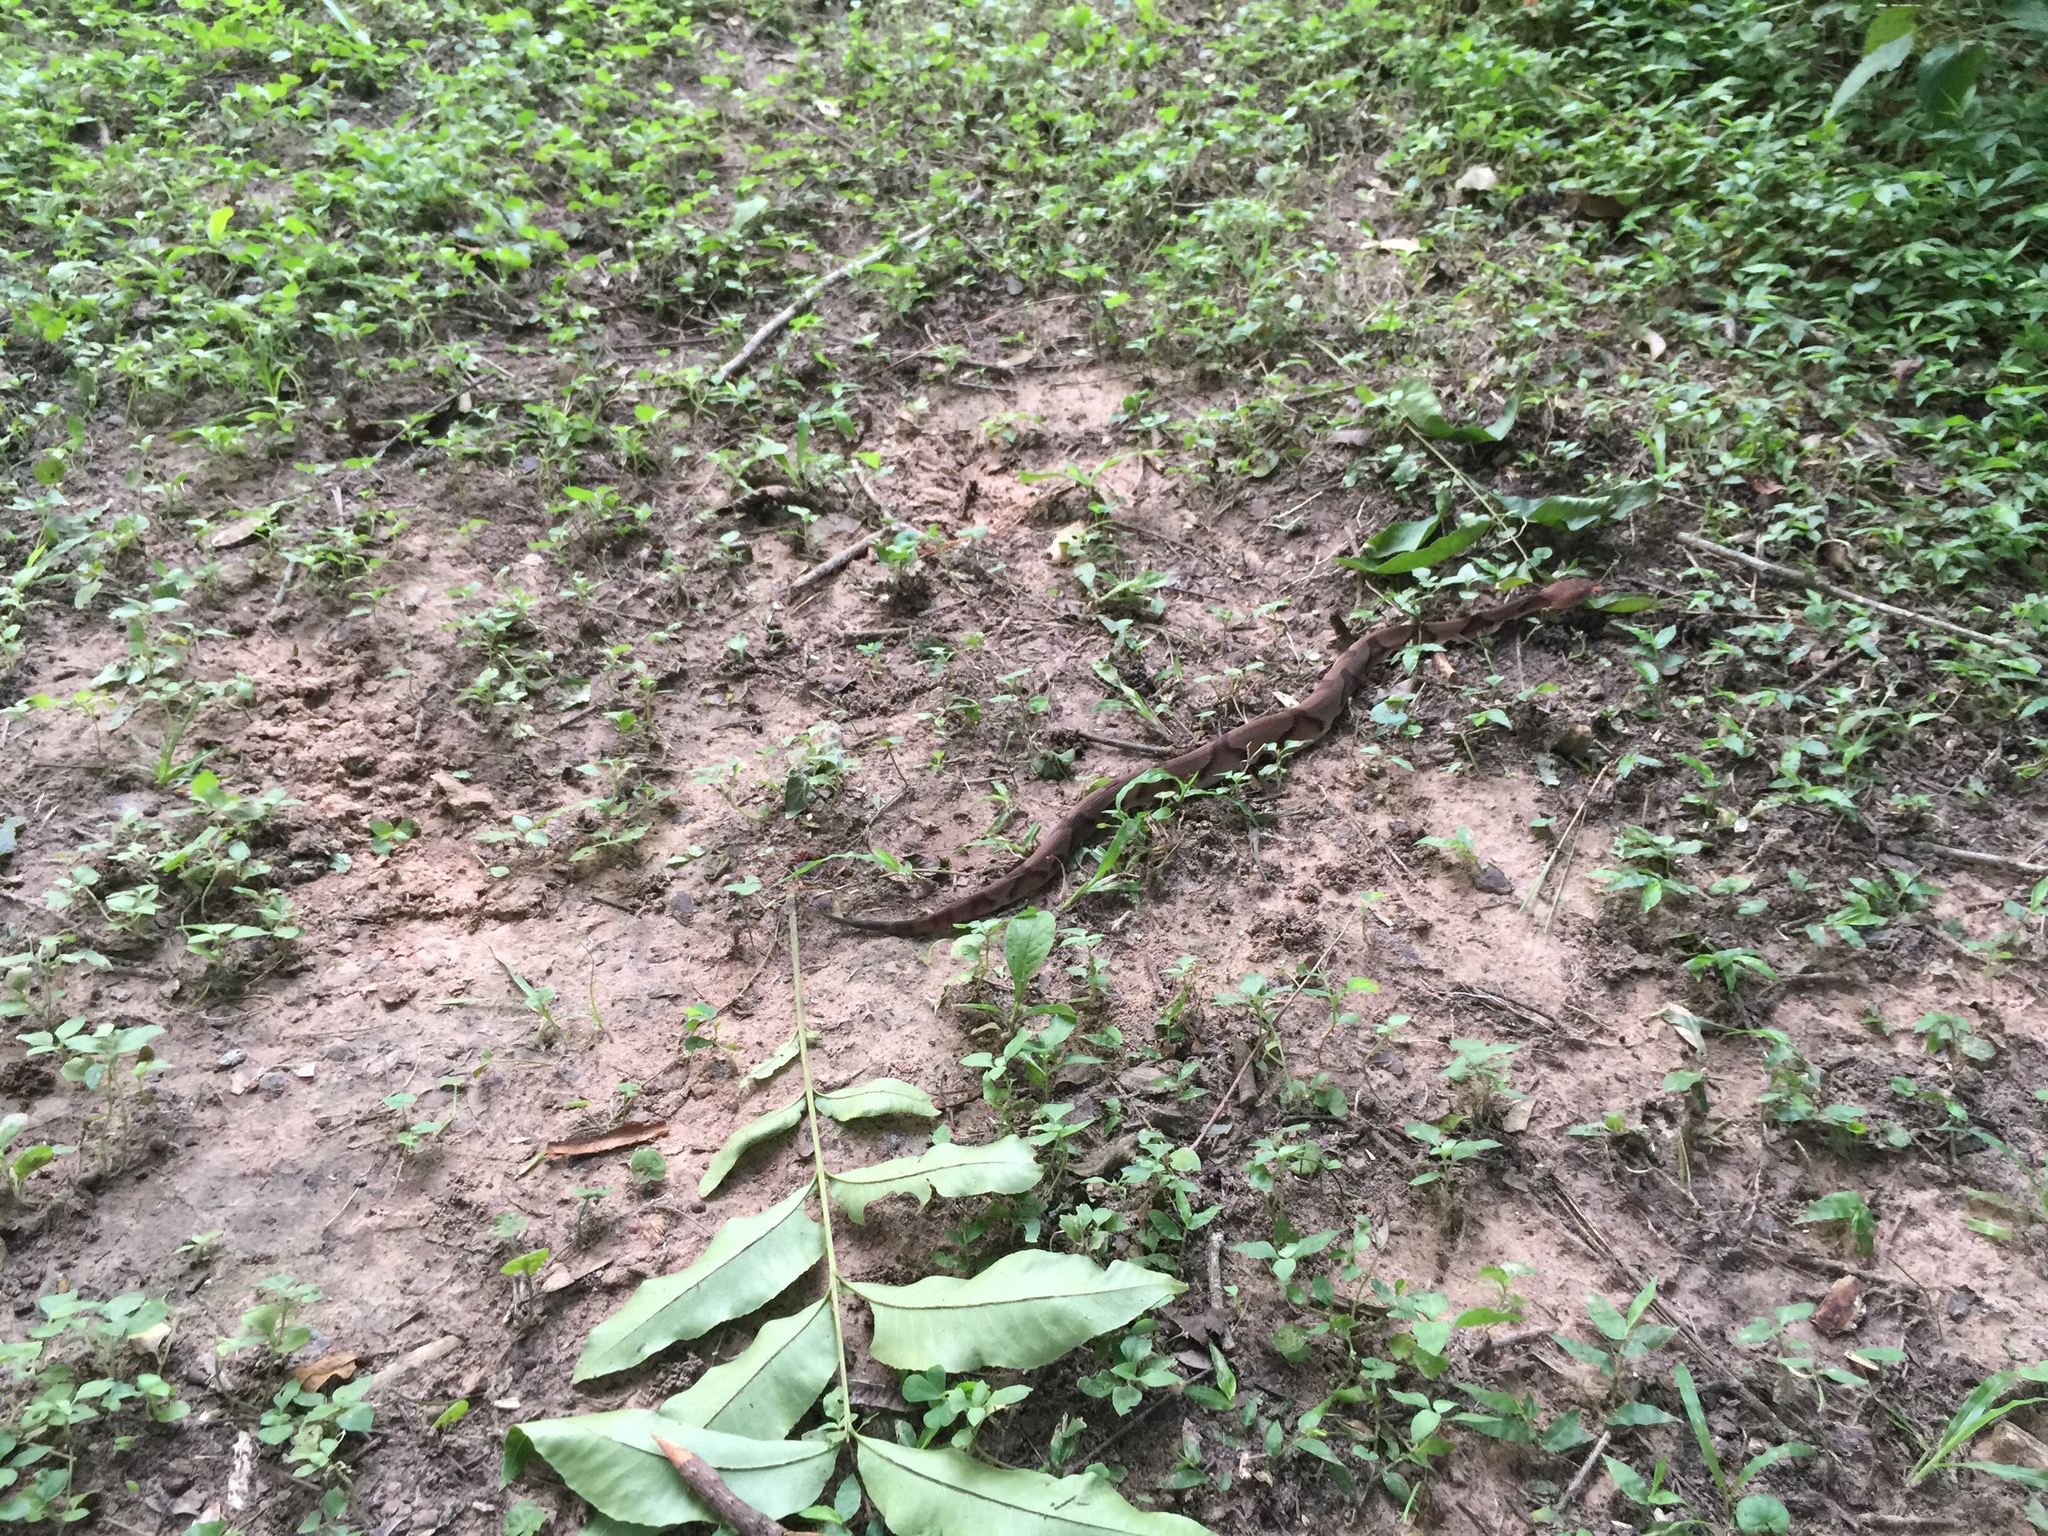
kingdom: Animalia
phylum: Chordata
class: Squamata
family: Viperidae
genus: Agkistrodon
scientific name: Agkistrodon contortrix
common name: Northern copperhead
